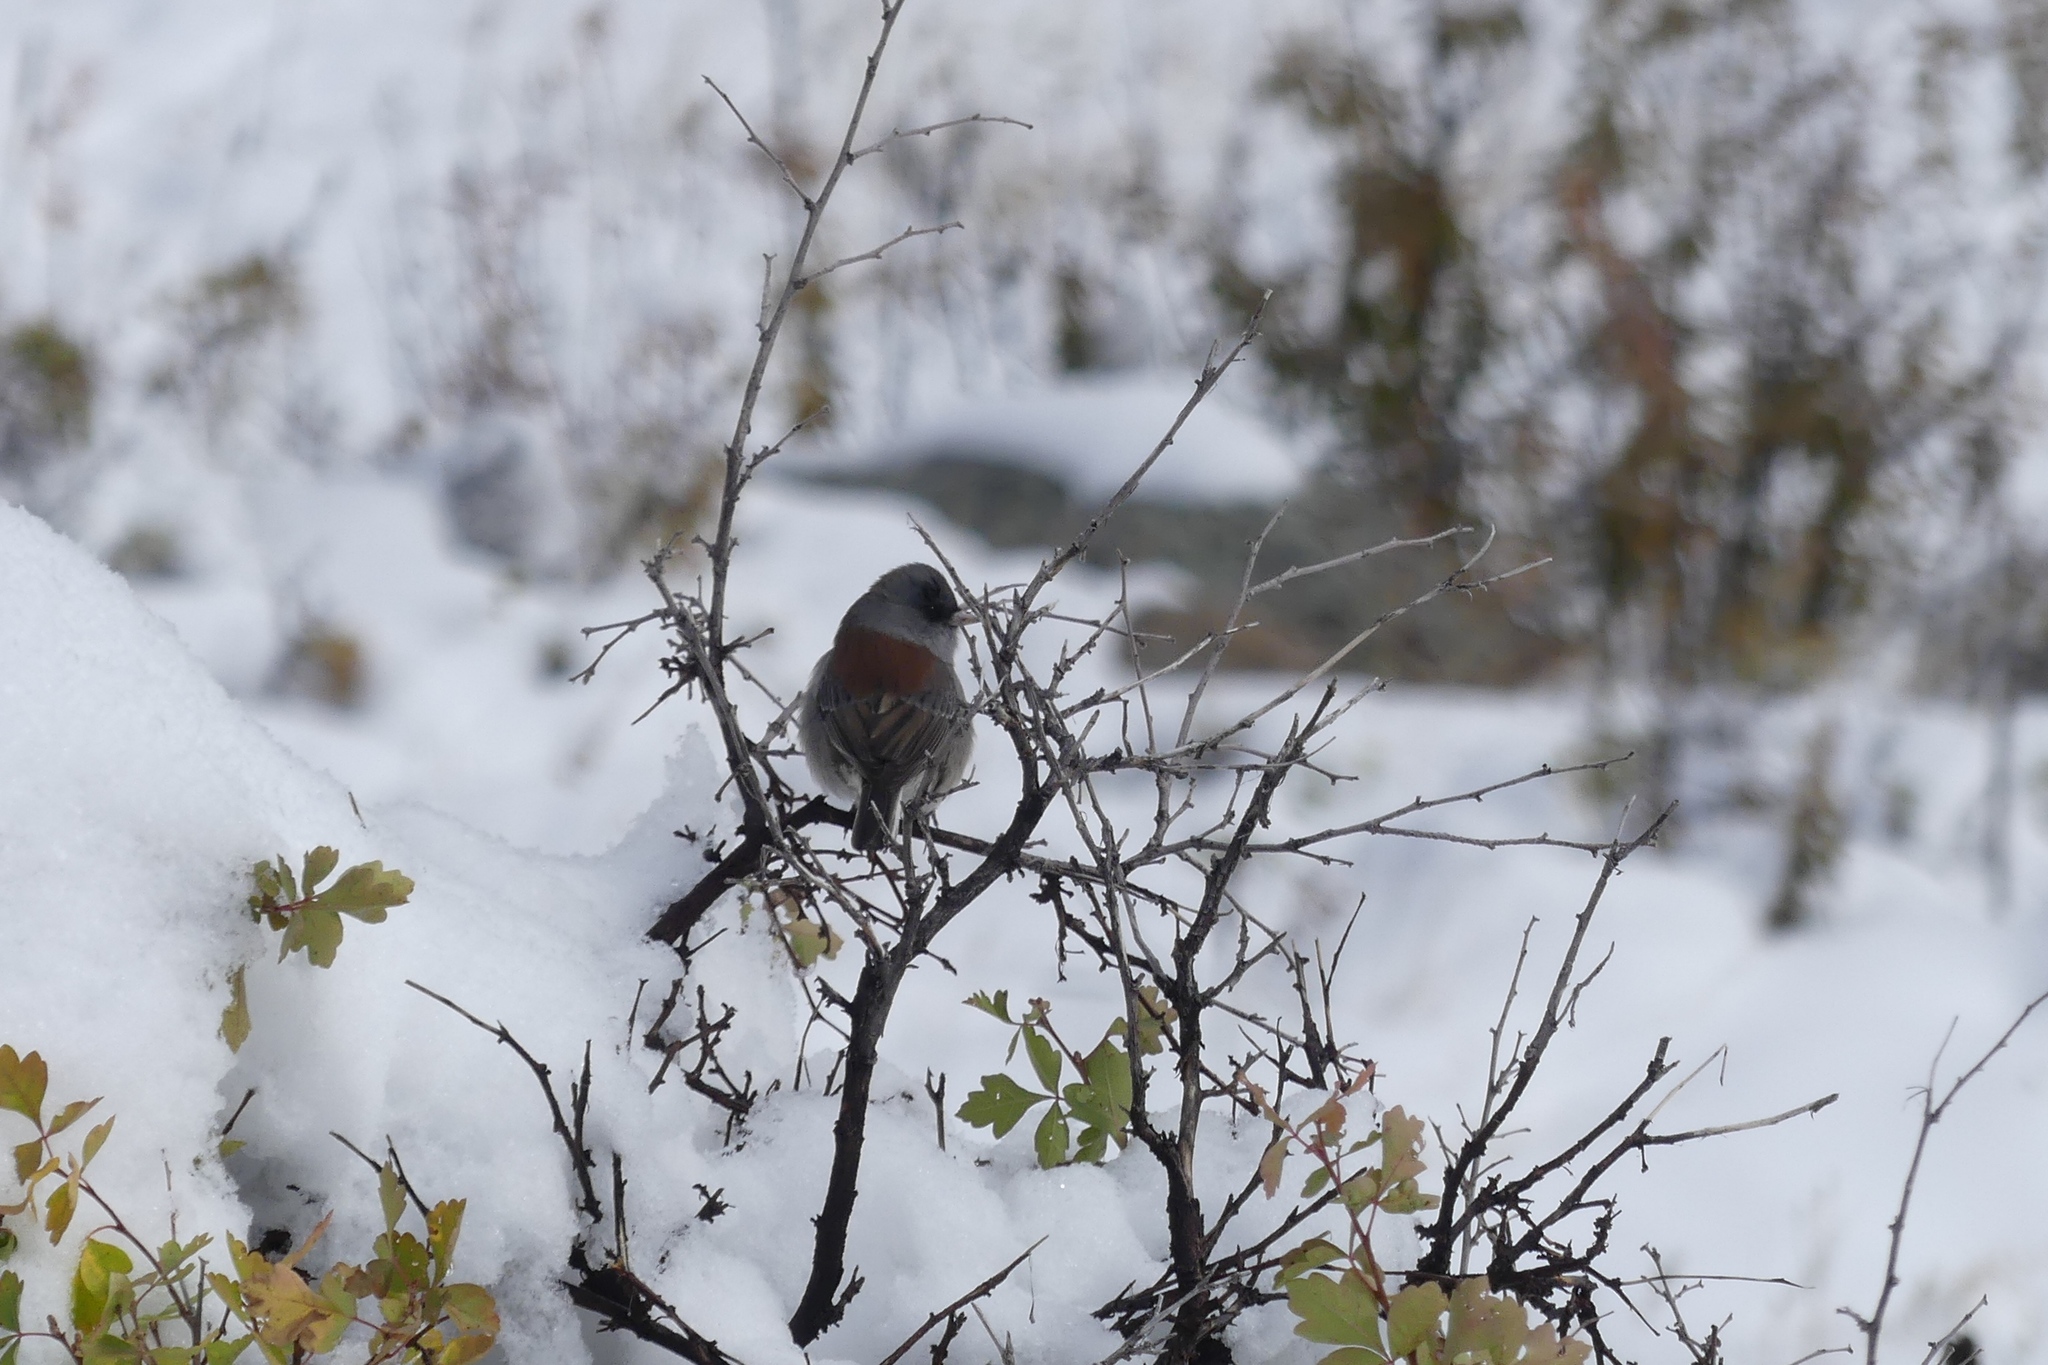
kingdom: Animalia
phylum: Chordata
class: Aves
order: Passeriformes
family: Passerellidae
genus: Junco
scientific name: Junco hyemalis
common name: Dark-eyed junco
